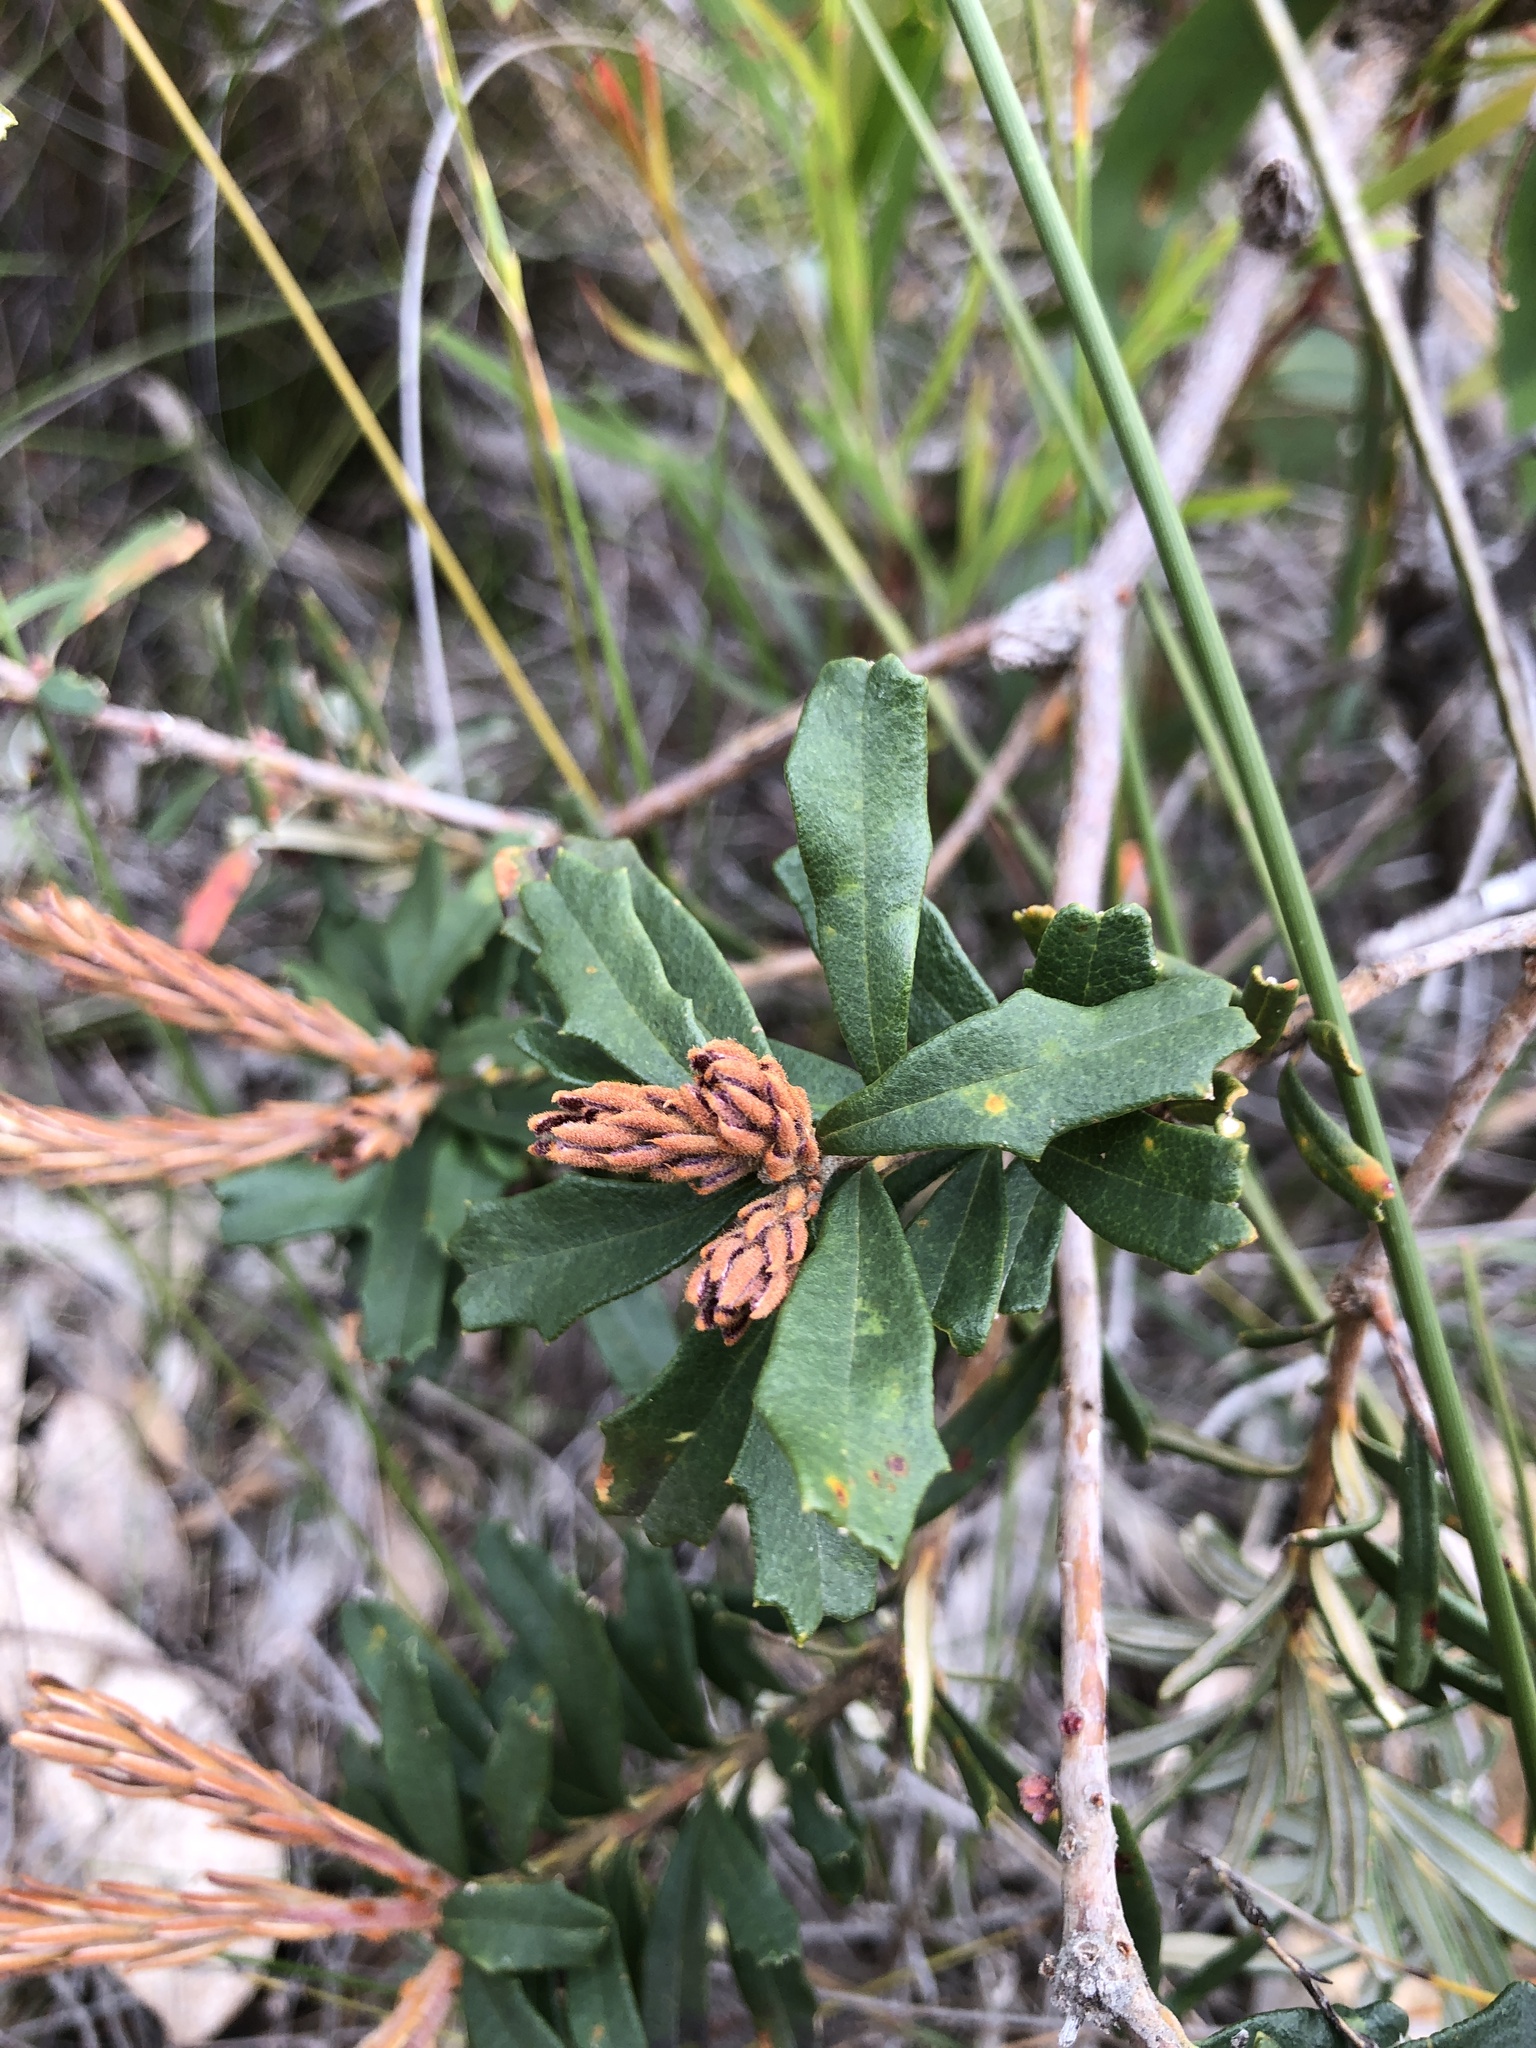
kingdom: Plantae
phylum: Tracheophyta
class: Magnoliopsida
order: Proteales
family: Proteaceae
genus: Banksia
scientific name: Banksia marginata
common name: Silver banksia
